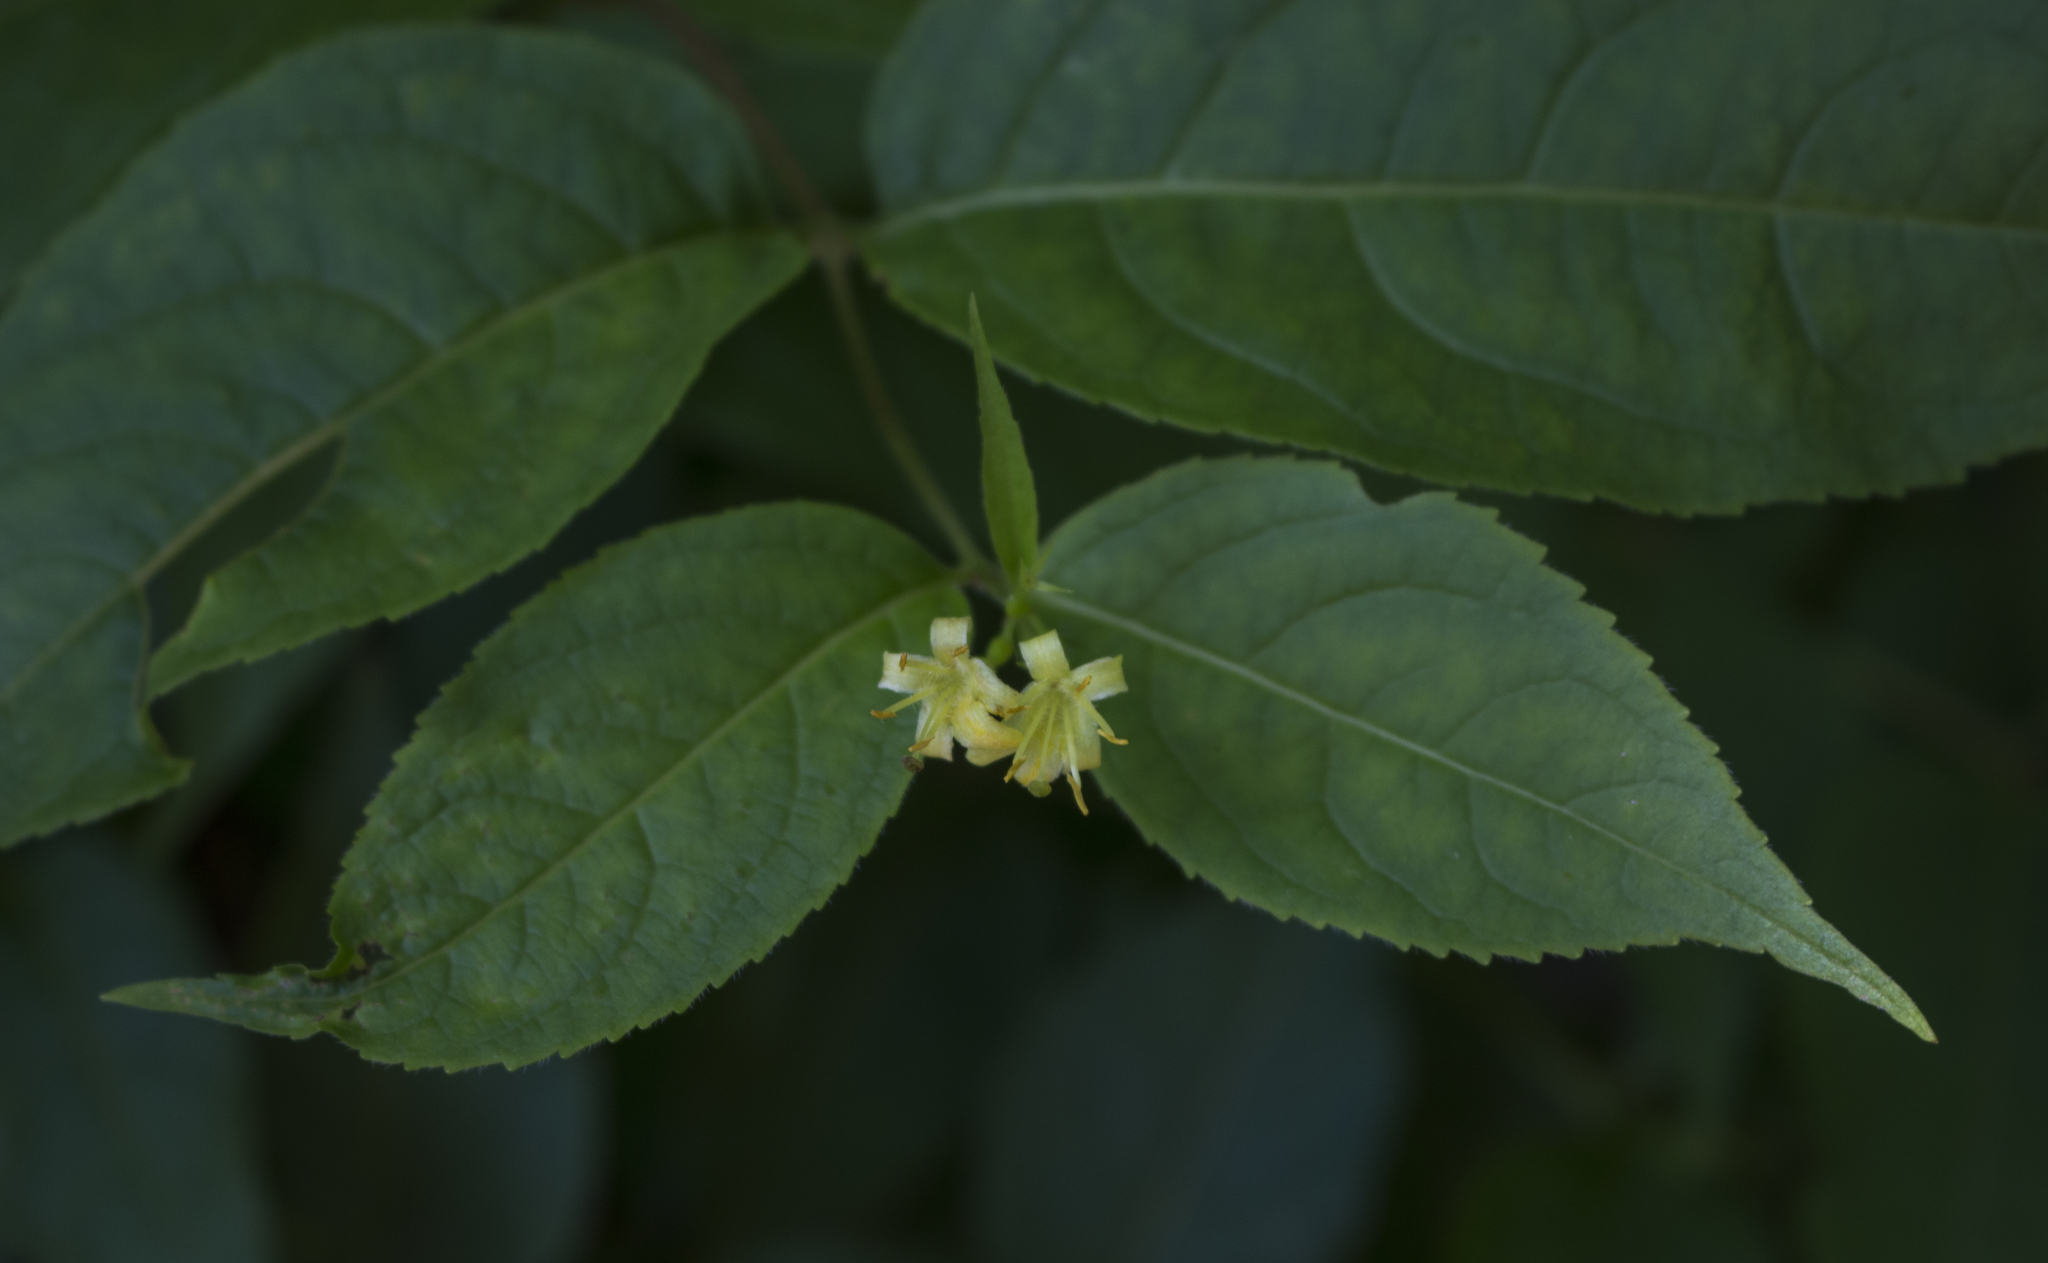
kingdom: Plantae
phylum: Tracheophyta
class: Magnoliopsida
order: Dipsacales
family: Caprifoliaceae
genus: Diervilla
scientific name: Diervilla lonicera
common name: Bush-honeysuckle
